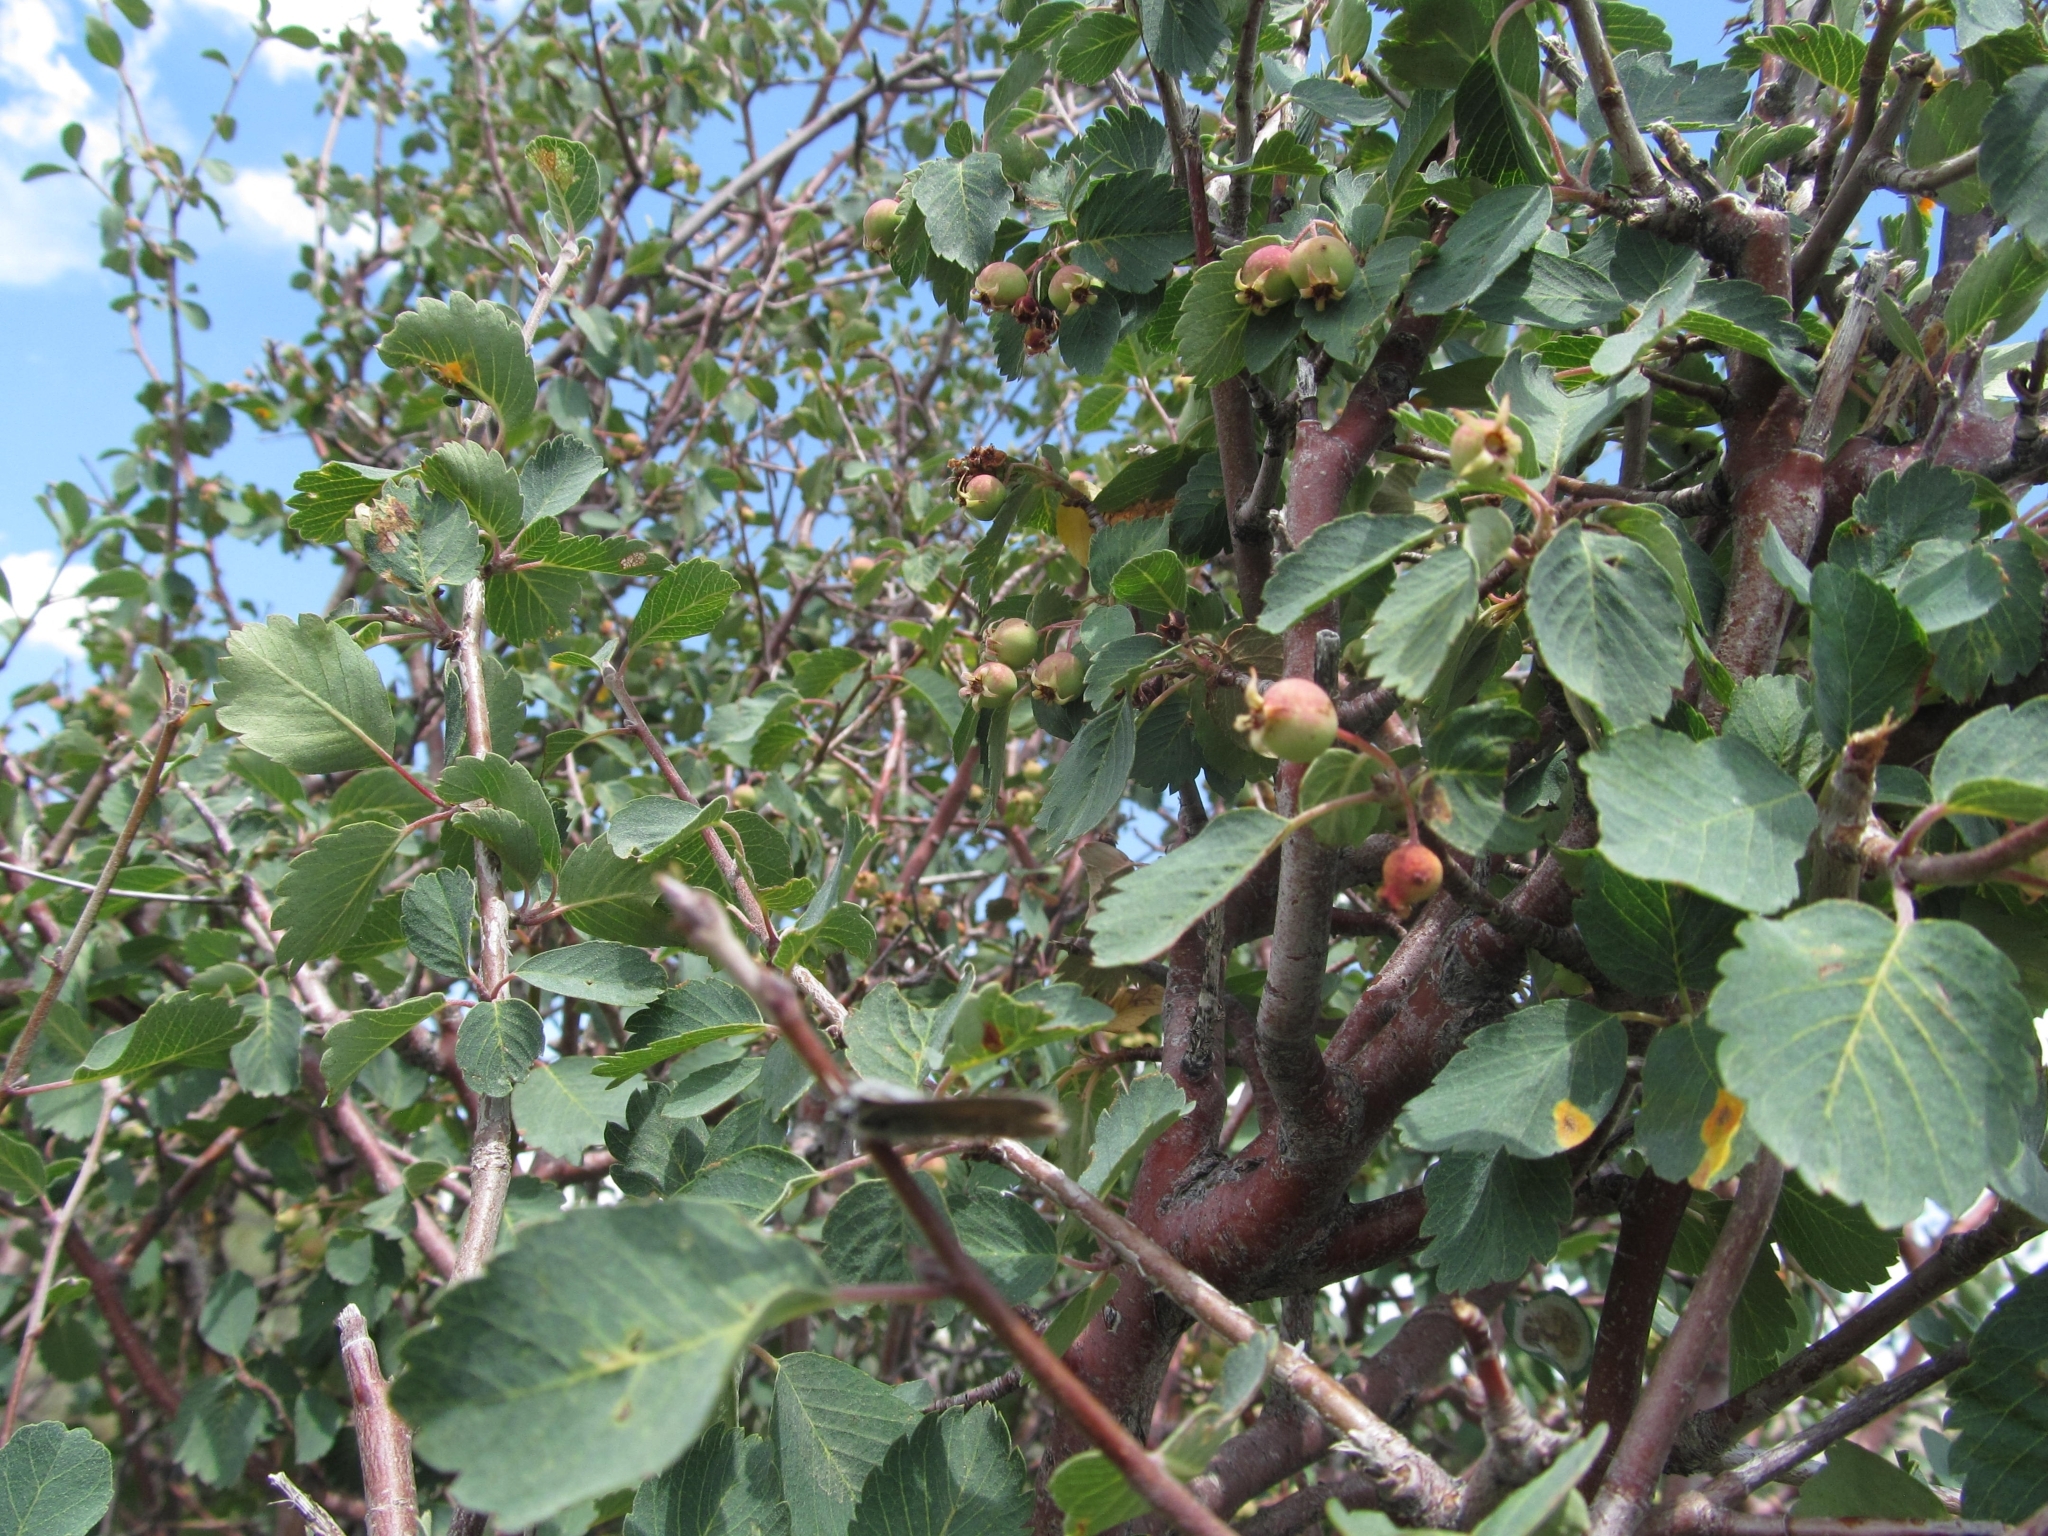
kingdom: Plantae
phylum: Tracheophyta
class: Magnoliopsida
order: Rosales
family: Rosaceae
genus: Amelanchier
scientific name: Amelanchier utahensis
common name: Utah serviceberry
